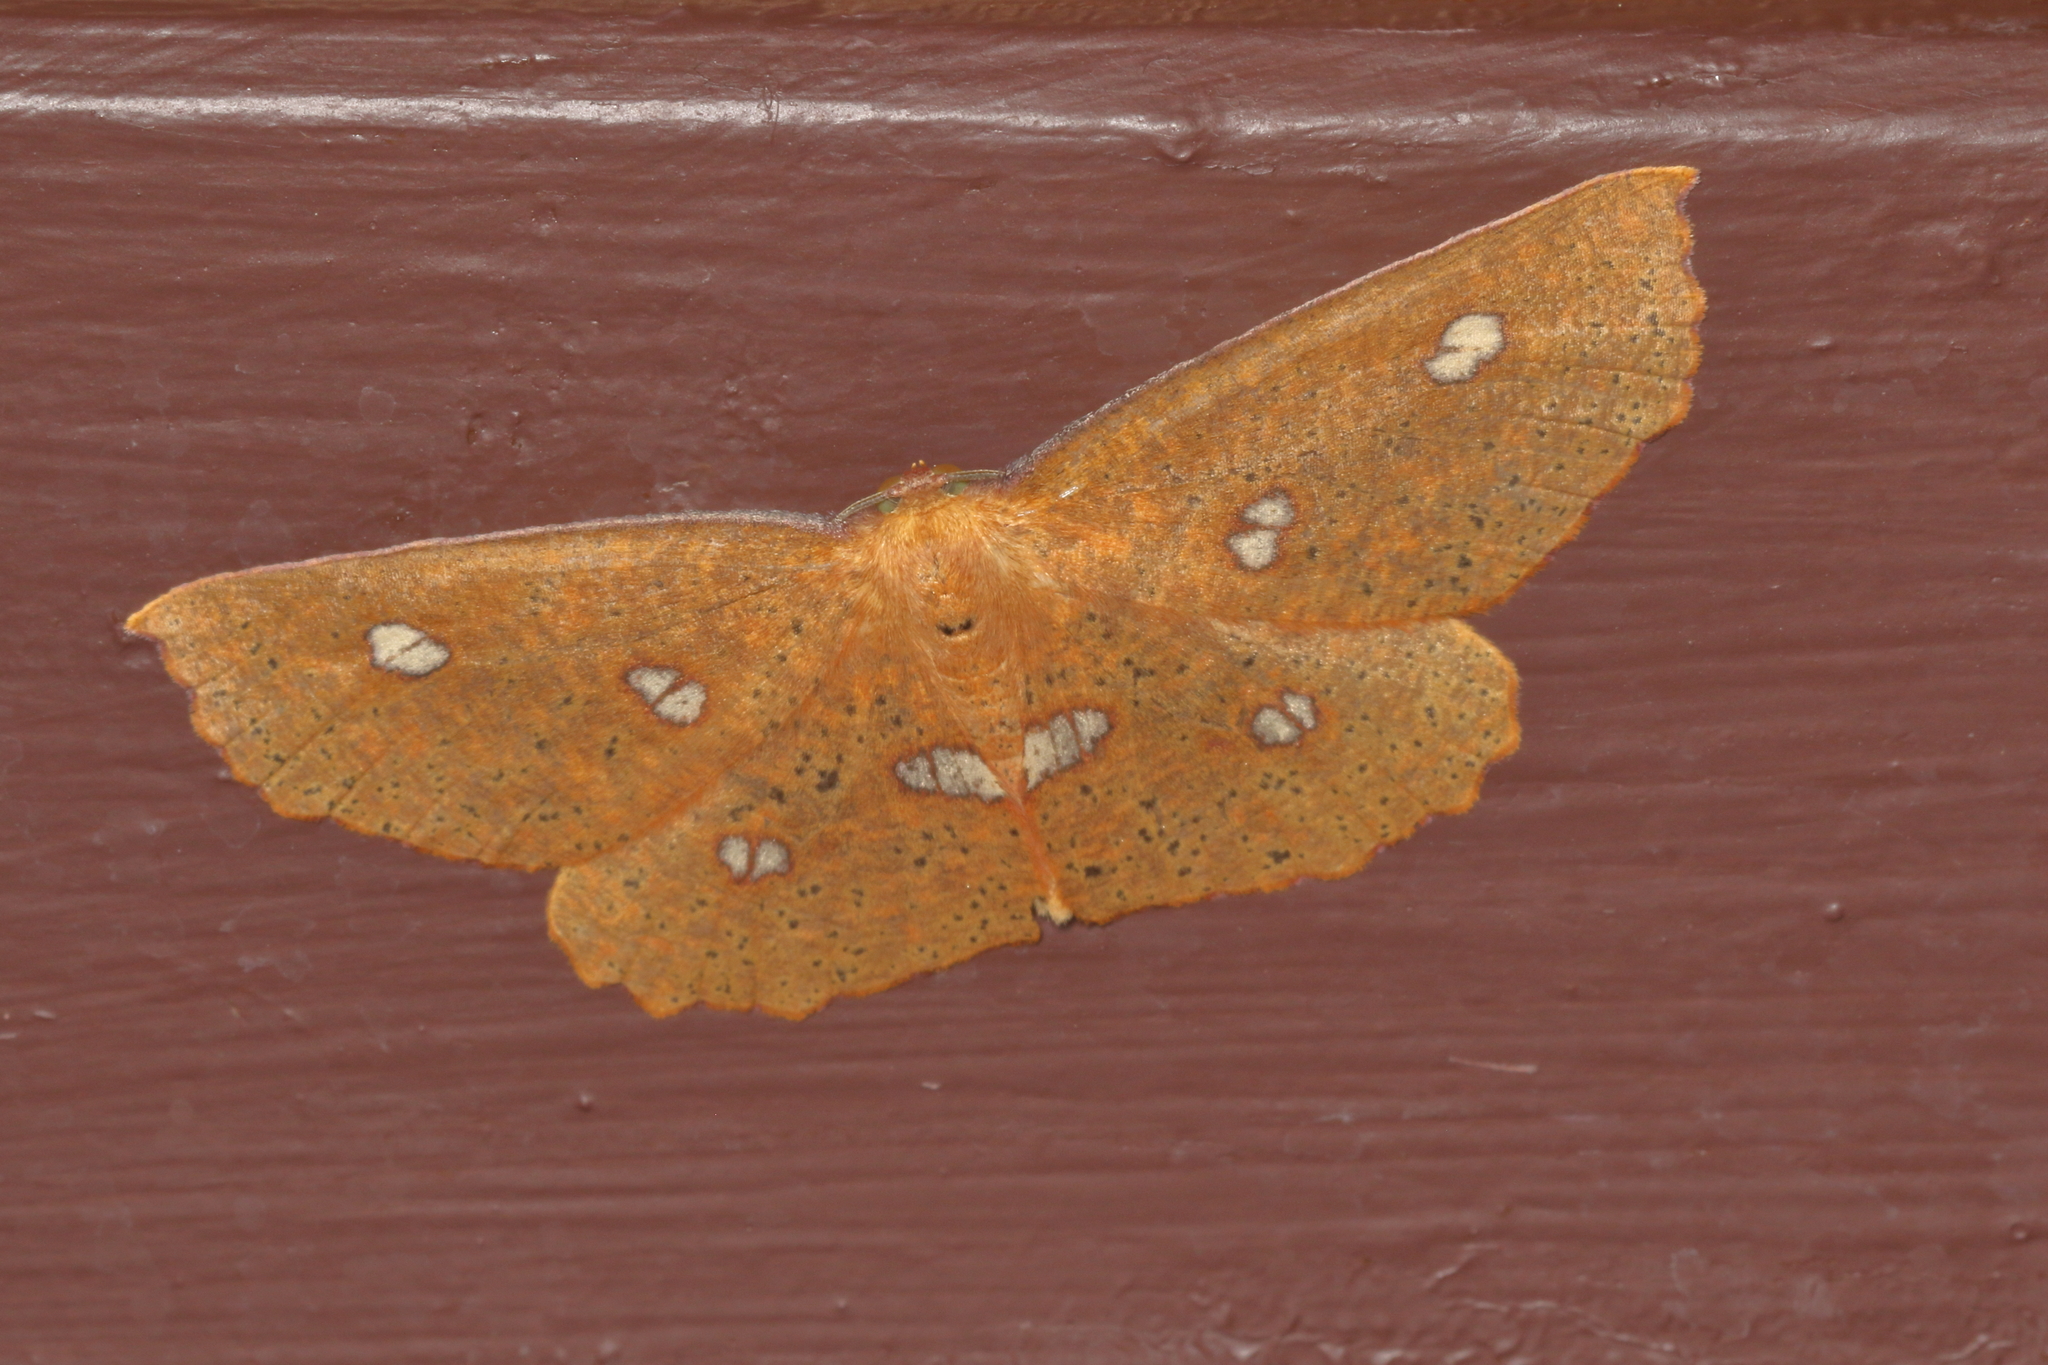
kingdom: Animalia
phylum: Arthropoda
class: Insecta
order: Lepidoptera
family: Geometridae
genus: Xyridacma
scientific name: Xyridacma alectoraria
